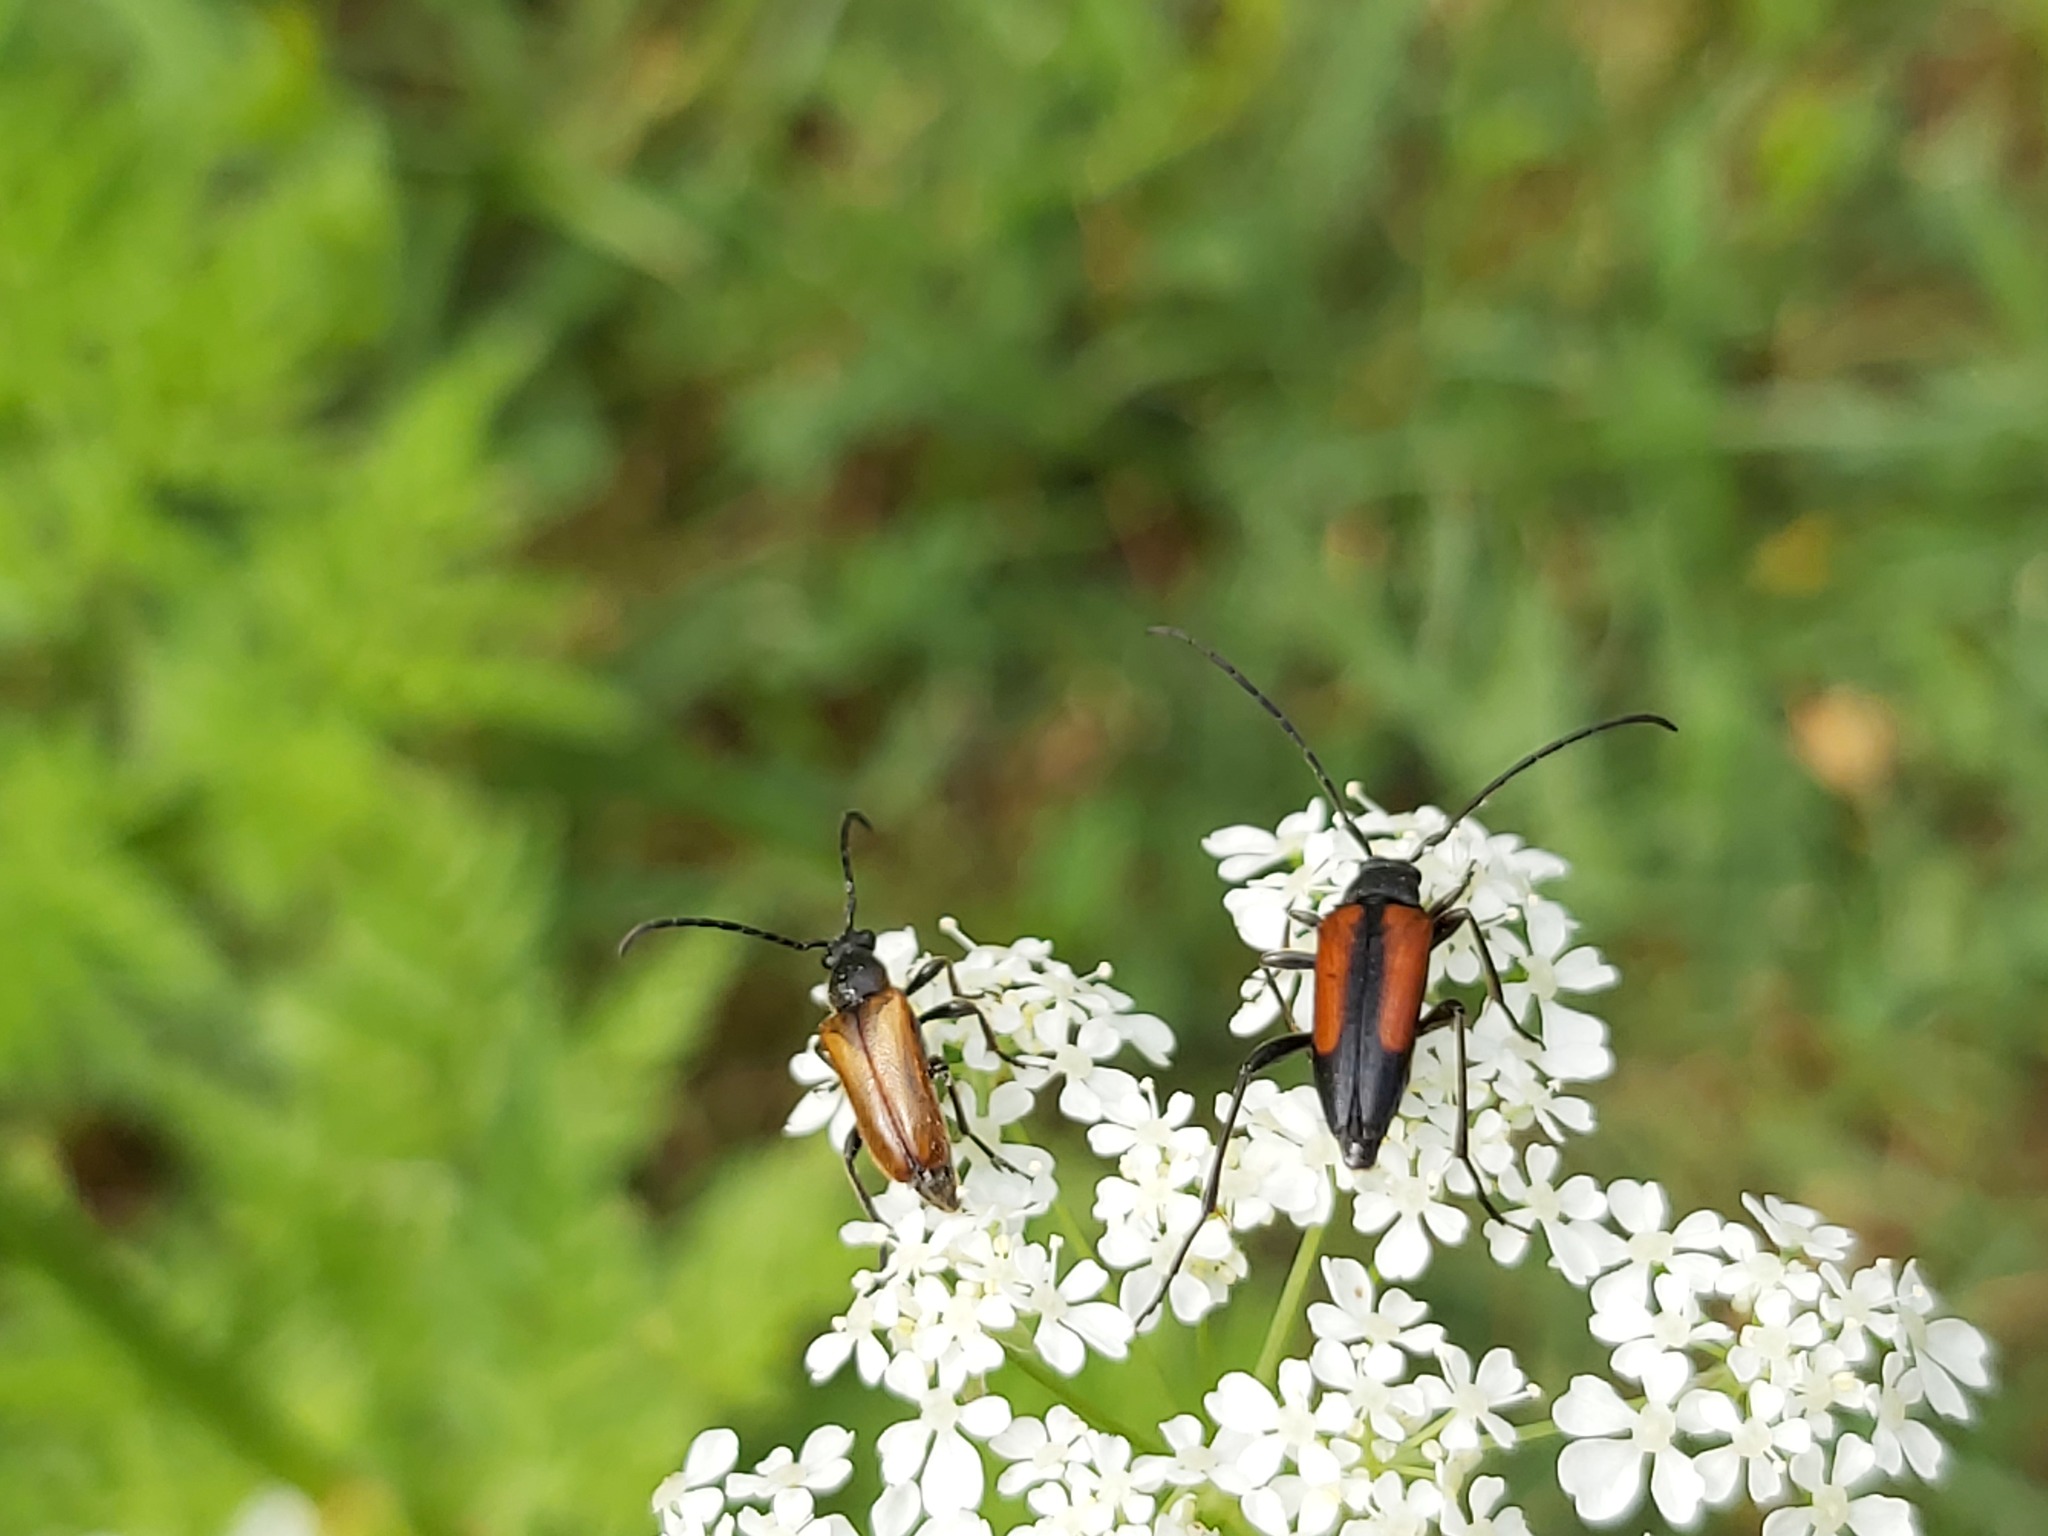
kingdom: Animalia
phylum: Arthropoda
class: Insecta
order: Coleoptera
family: Cerambycidae
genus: Stenurella
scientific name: Stenurella melanura
